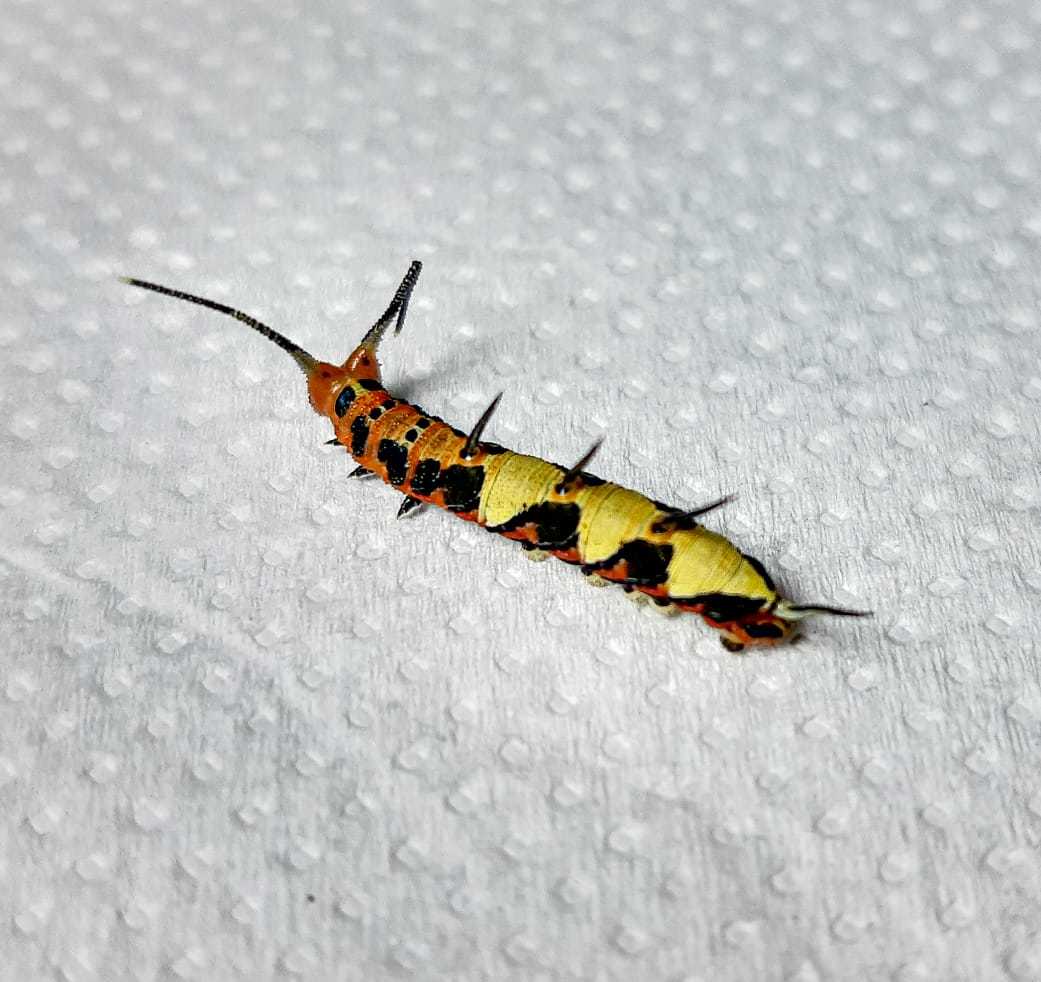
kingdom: Animalia
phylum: Arthropoda
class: Insecta
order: Lepidoptera
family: Nymphalidae
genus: Marpesia
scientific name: Marpesia petreus
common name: Red dagger wing
